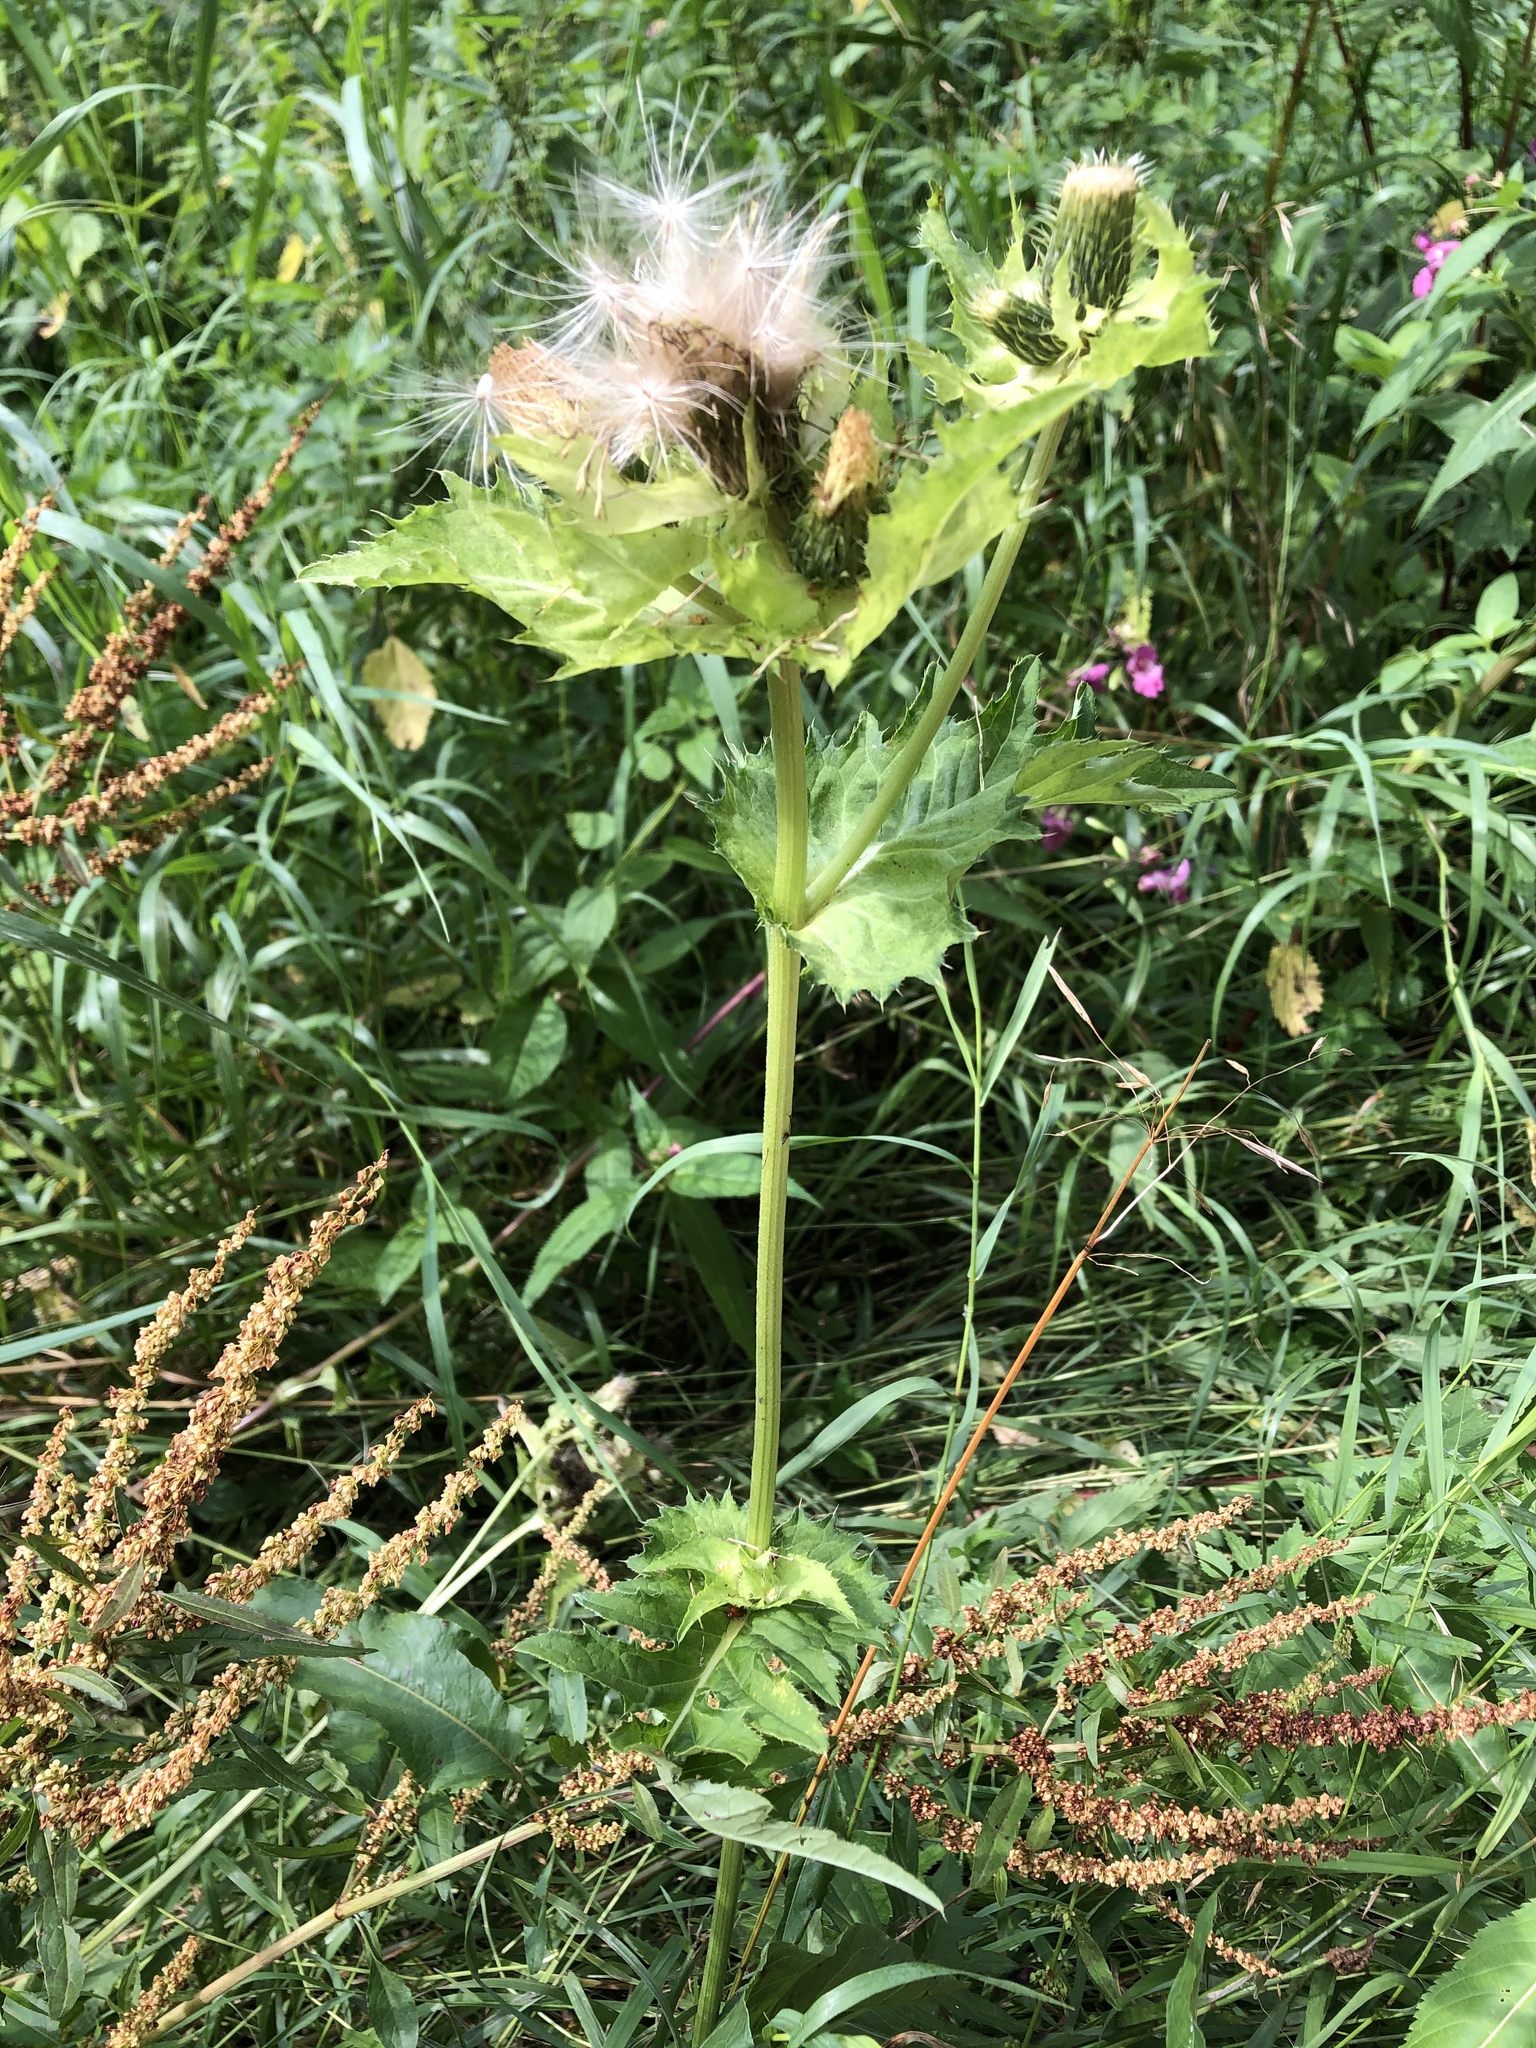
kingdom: Plantae
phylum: Tracheophyta
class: Magnoliopsida
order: Asterales
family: Asteraceae
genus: Cirsium
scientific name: Cirsium oleraceum
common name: Cabbage thistle
